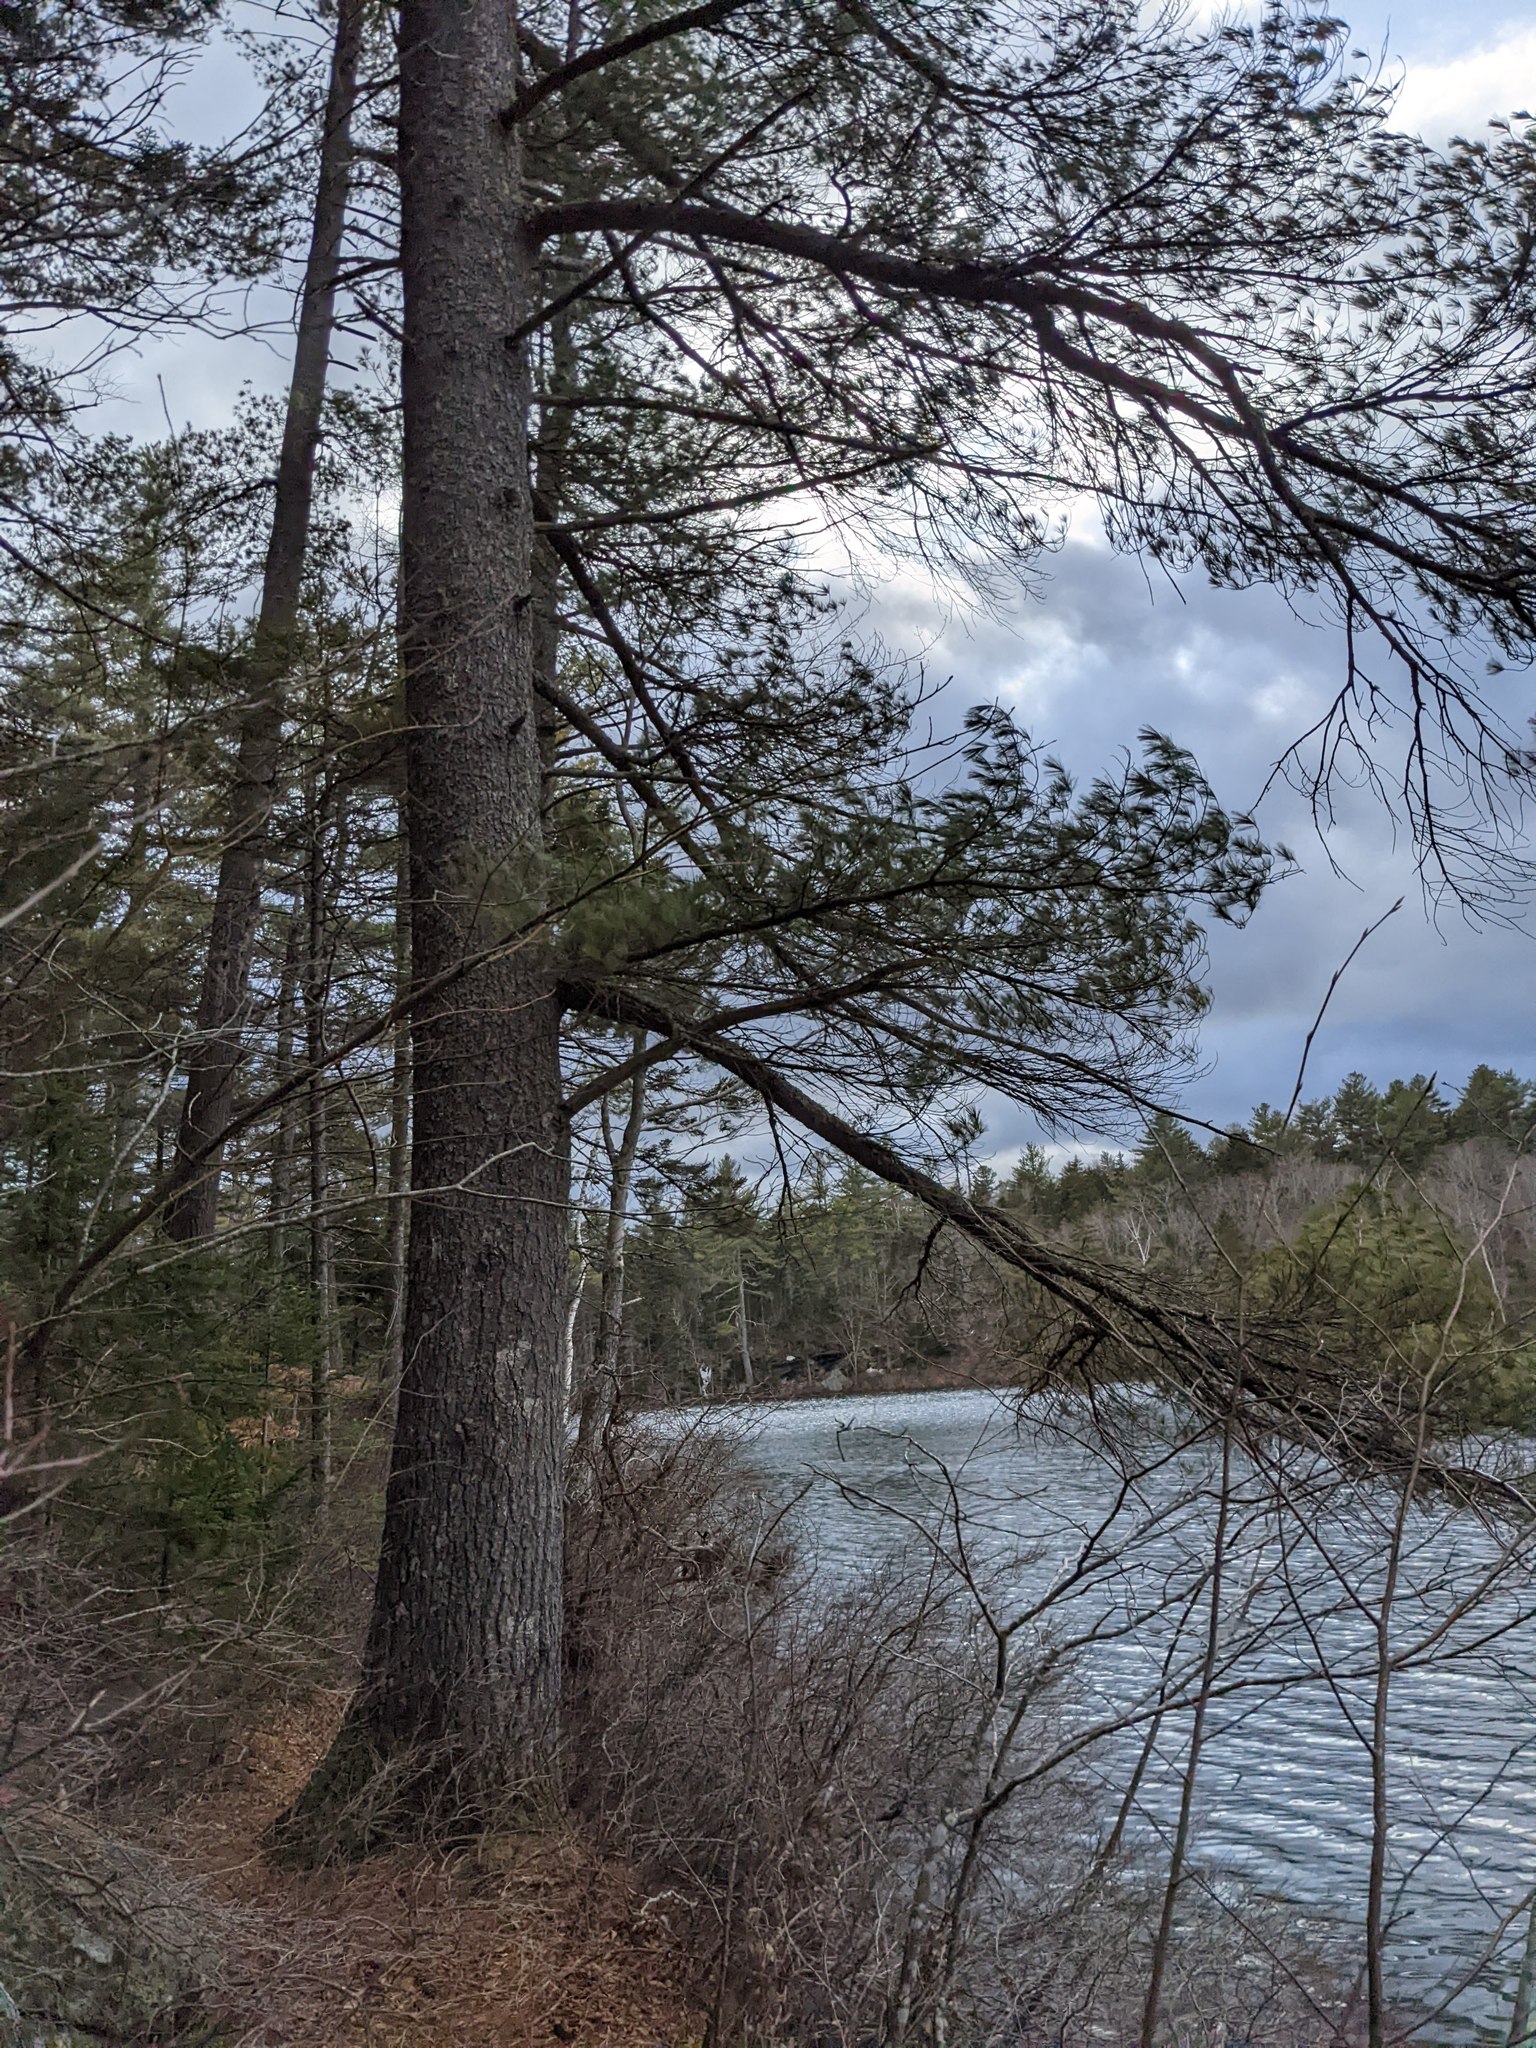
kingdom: Plantae
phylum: Tracheophyta
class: Pinopsida
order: Pinales
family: Pinaceae
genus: Pinus
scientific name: Pinus strobus
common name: Weymouth pine
